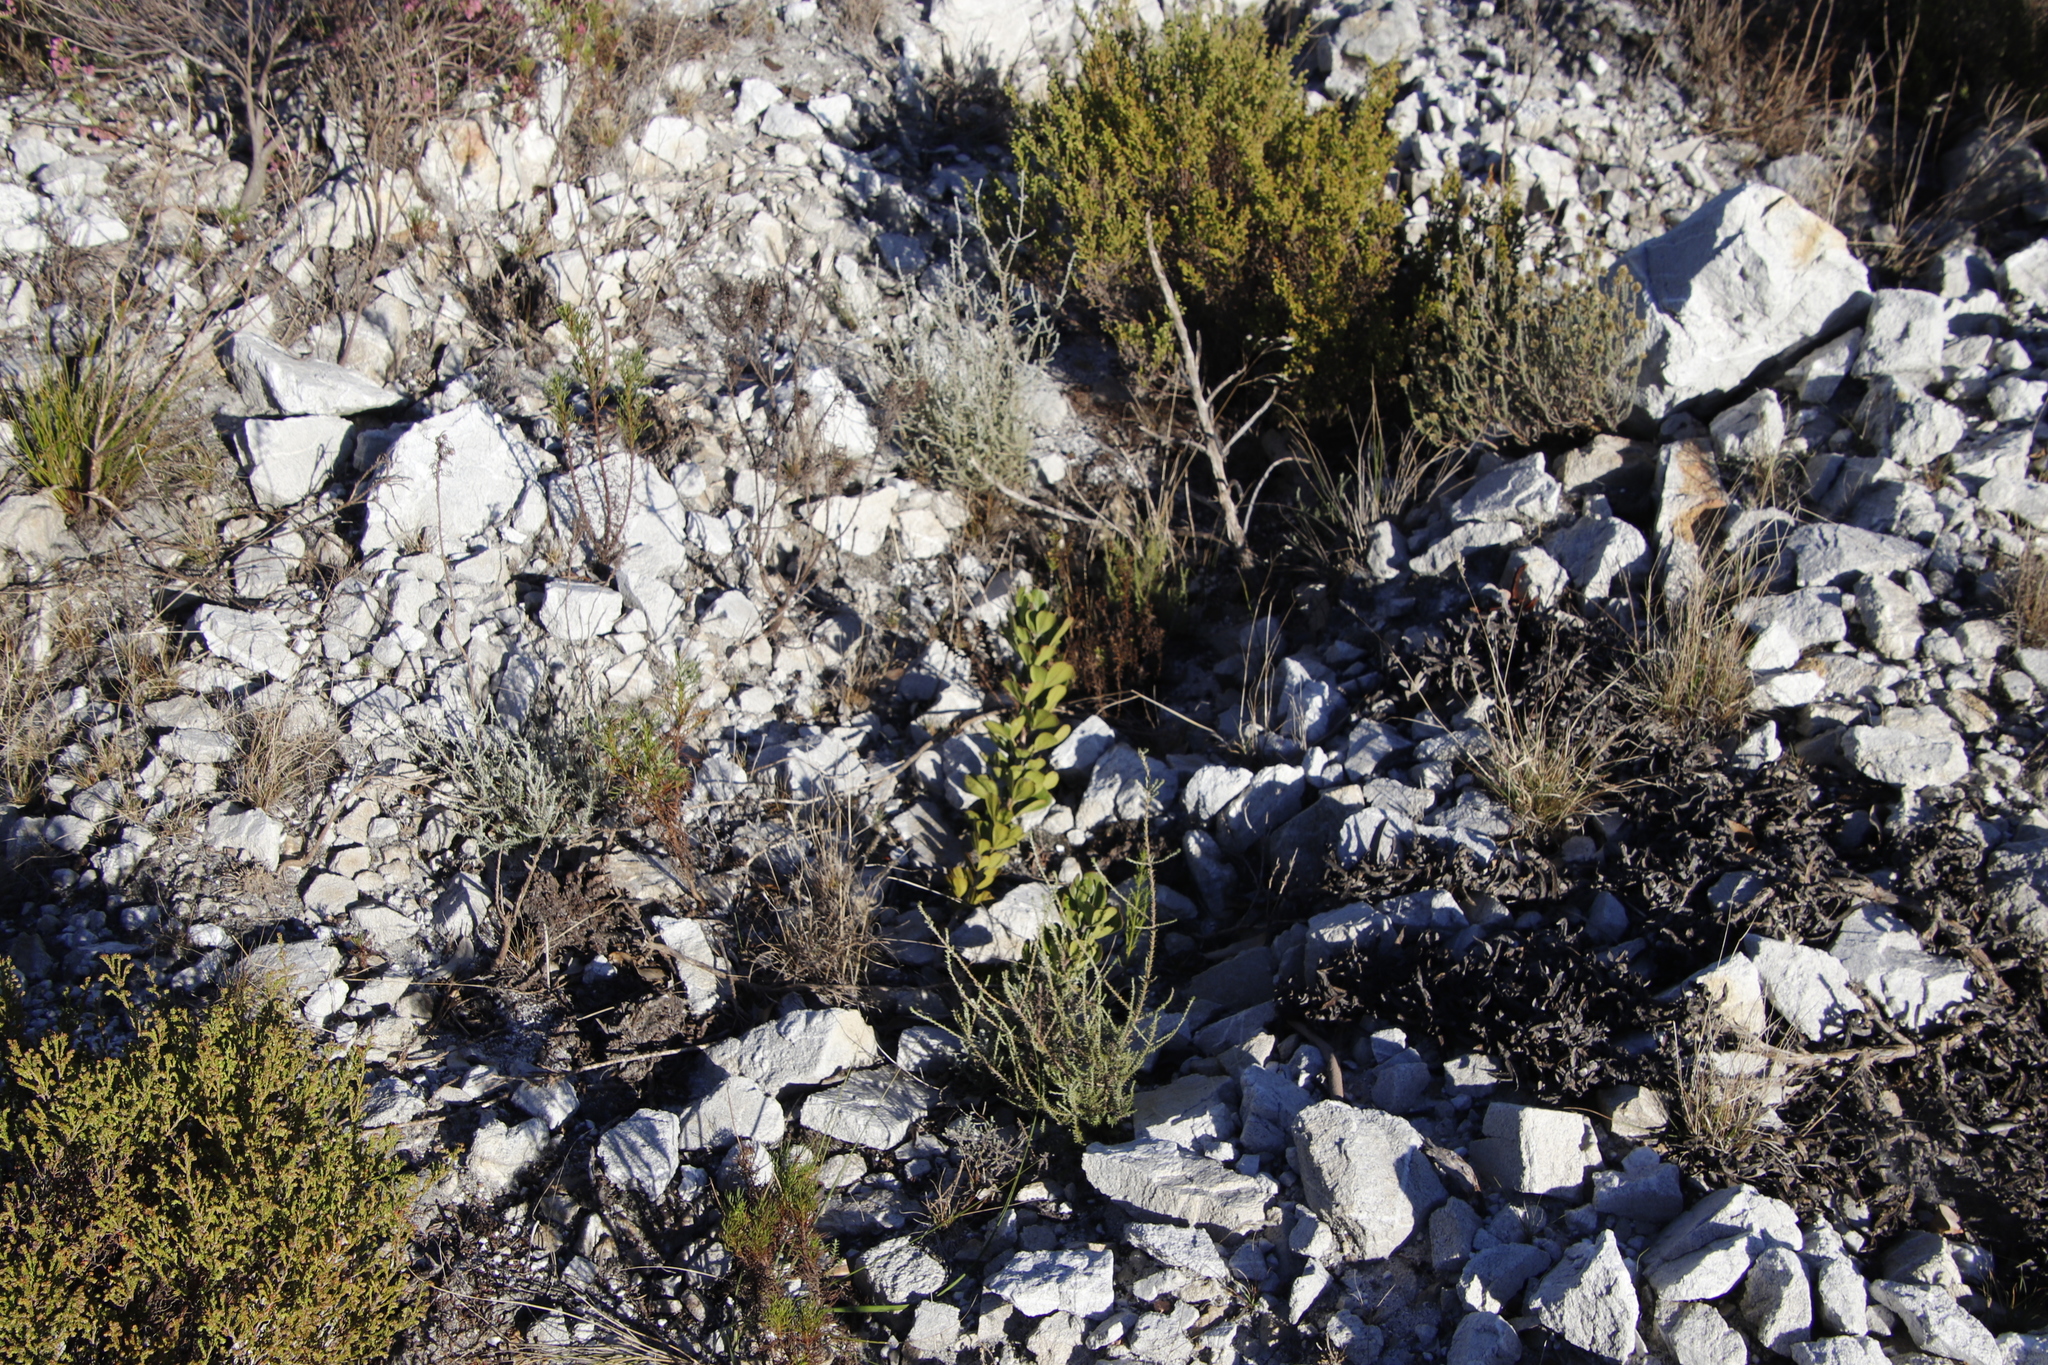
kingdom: Plantae
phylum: Tracheophyta
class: Magnoliopsida
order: Sapindales
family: Anacardiaceae
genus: Searsia
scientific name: Searsia scytophylla
